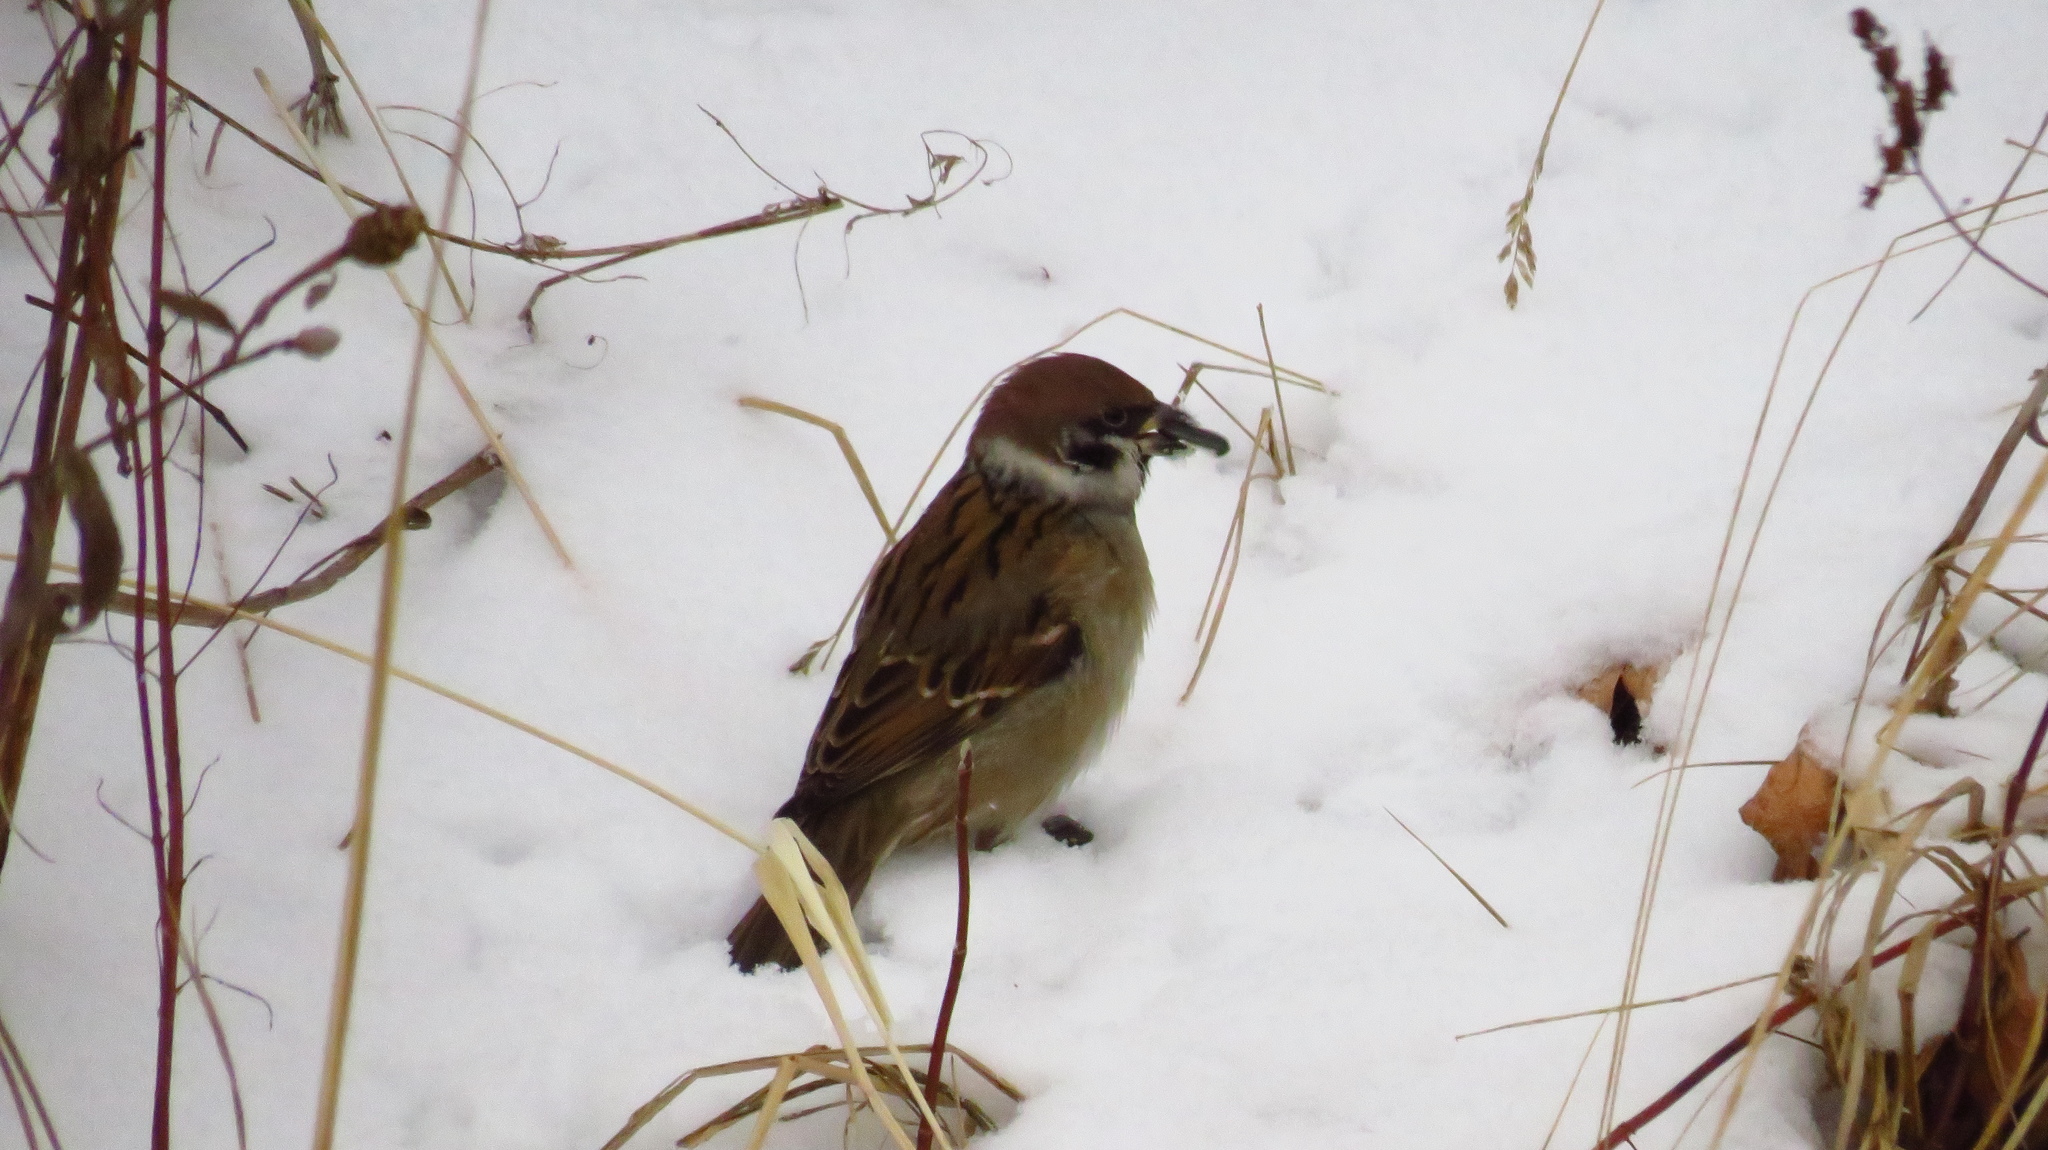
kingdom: Animalia
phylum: Chordata
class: Aves
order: Passeriformes
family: Passeridae
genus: Passer
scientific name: Passer montanus
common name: Eurasian tree sparrow
